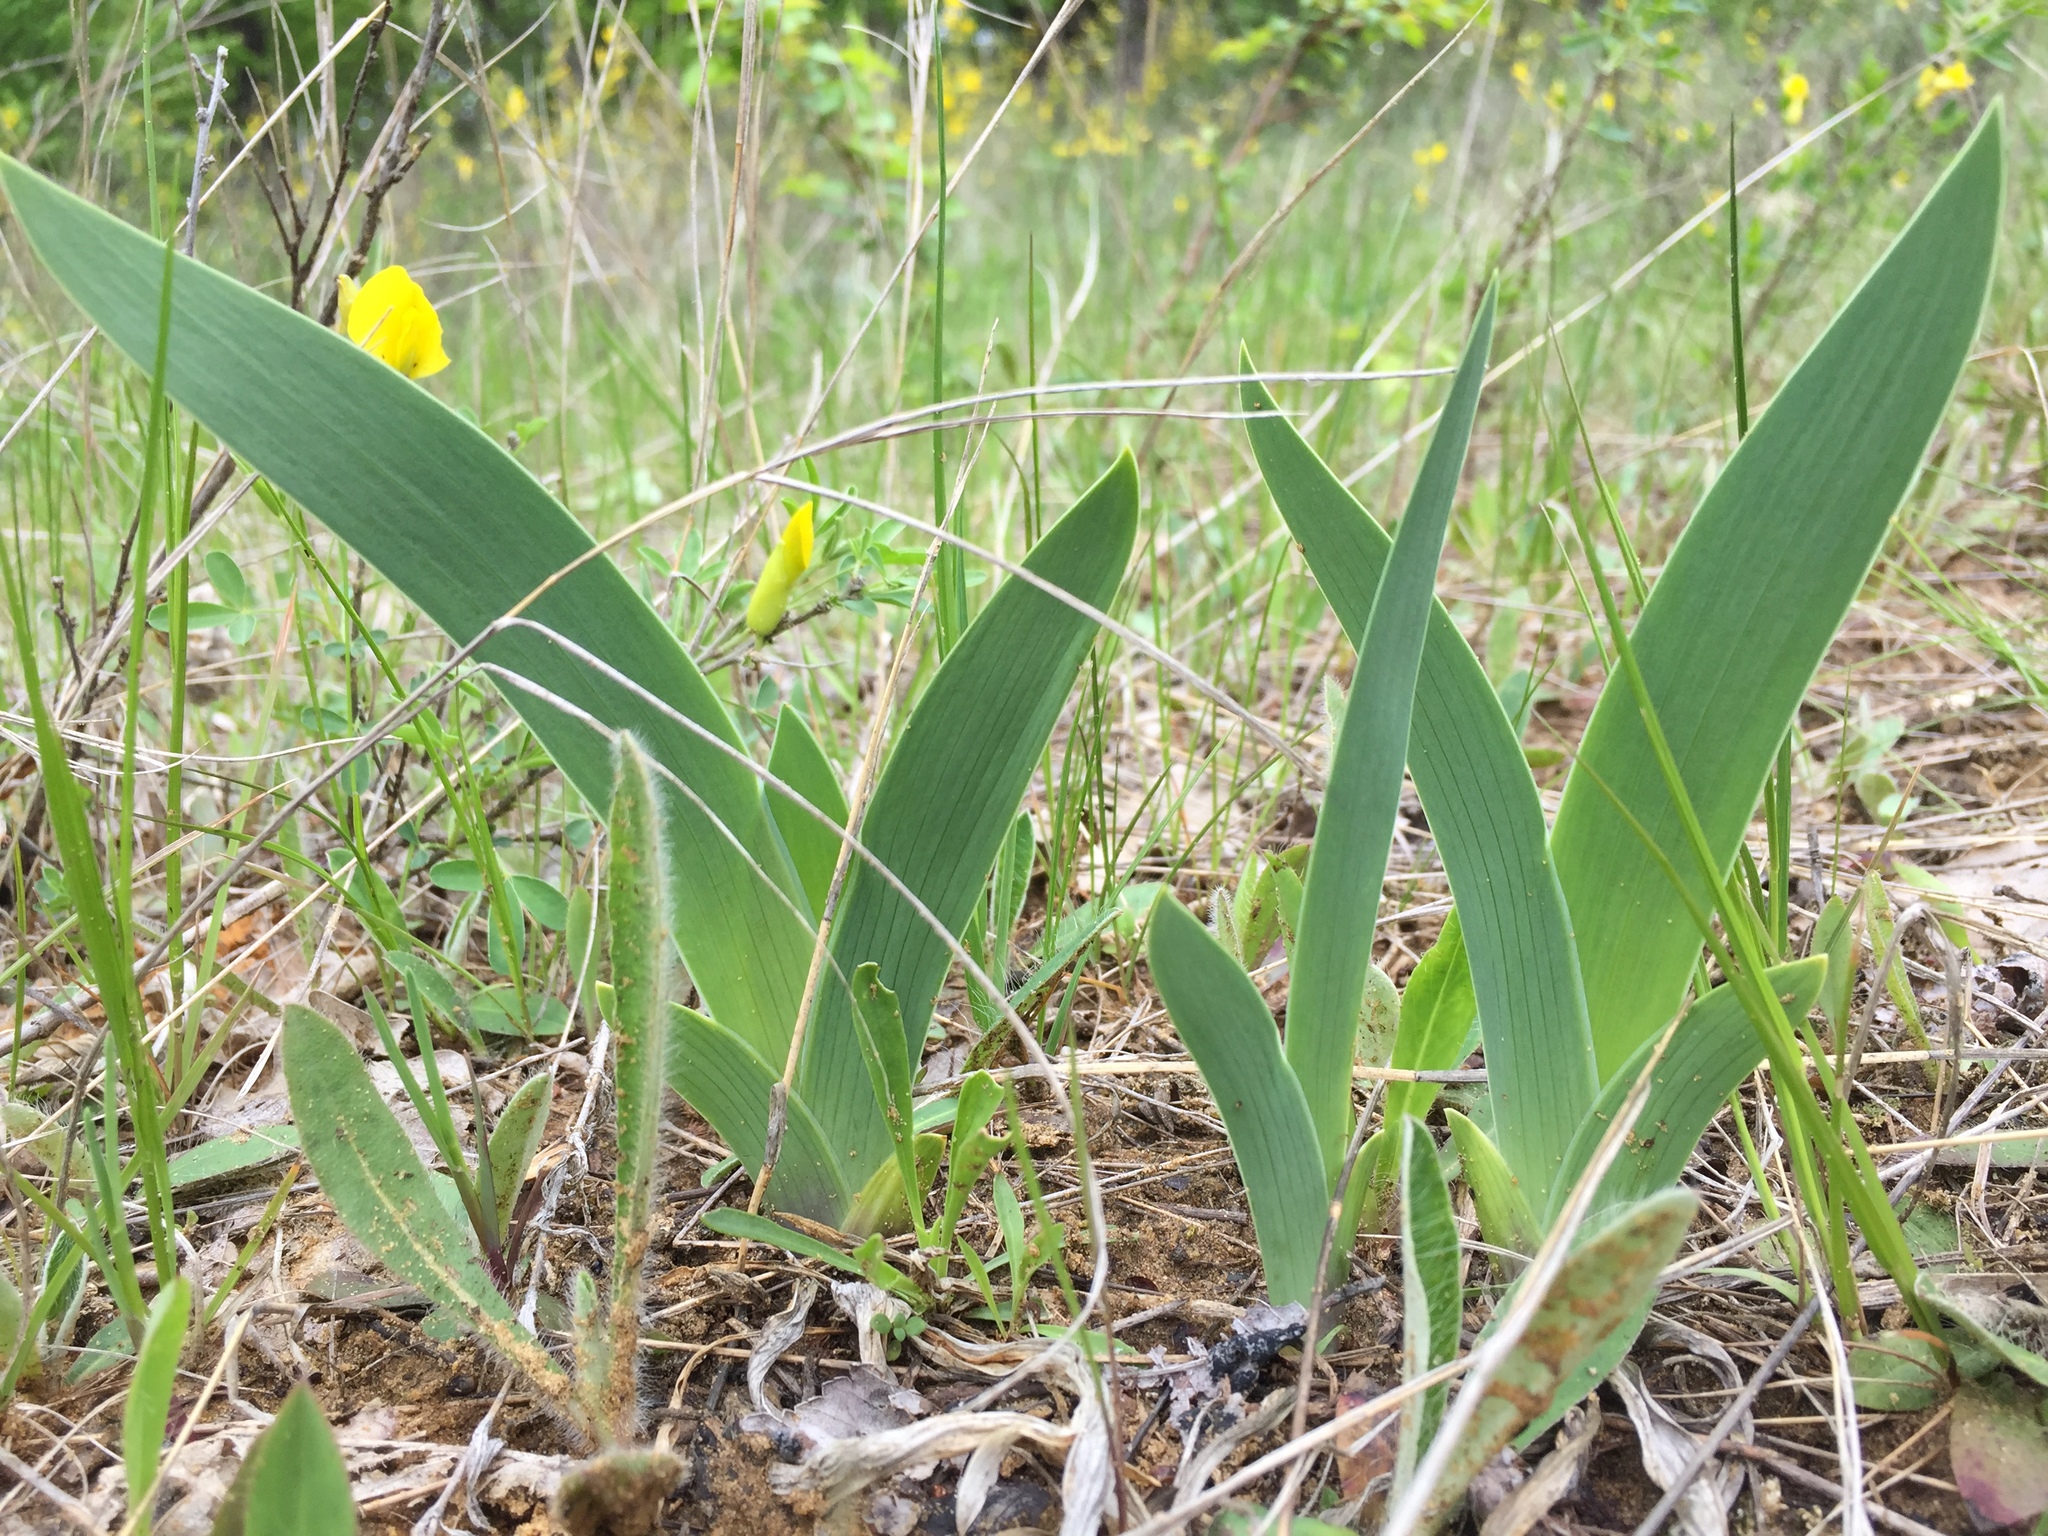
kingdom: Plantae
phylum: Tracheophyta
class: Liliopsida
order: Asparagales
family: Iridaceae
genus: Iris
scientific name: Iris aphylla
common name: Stool iris
